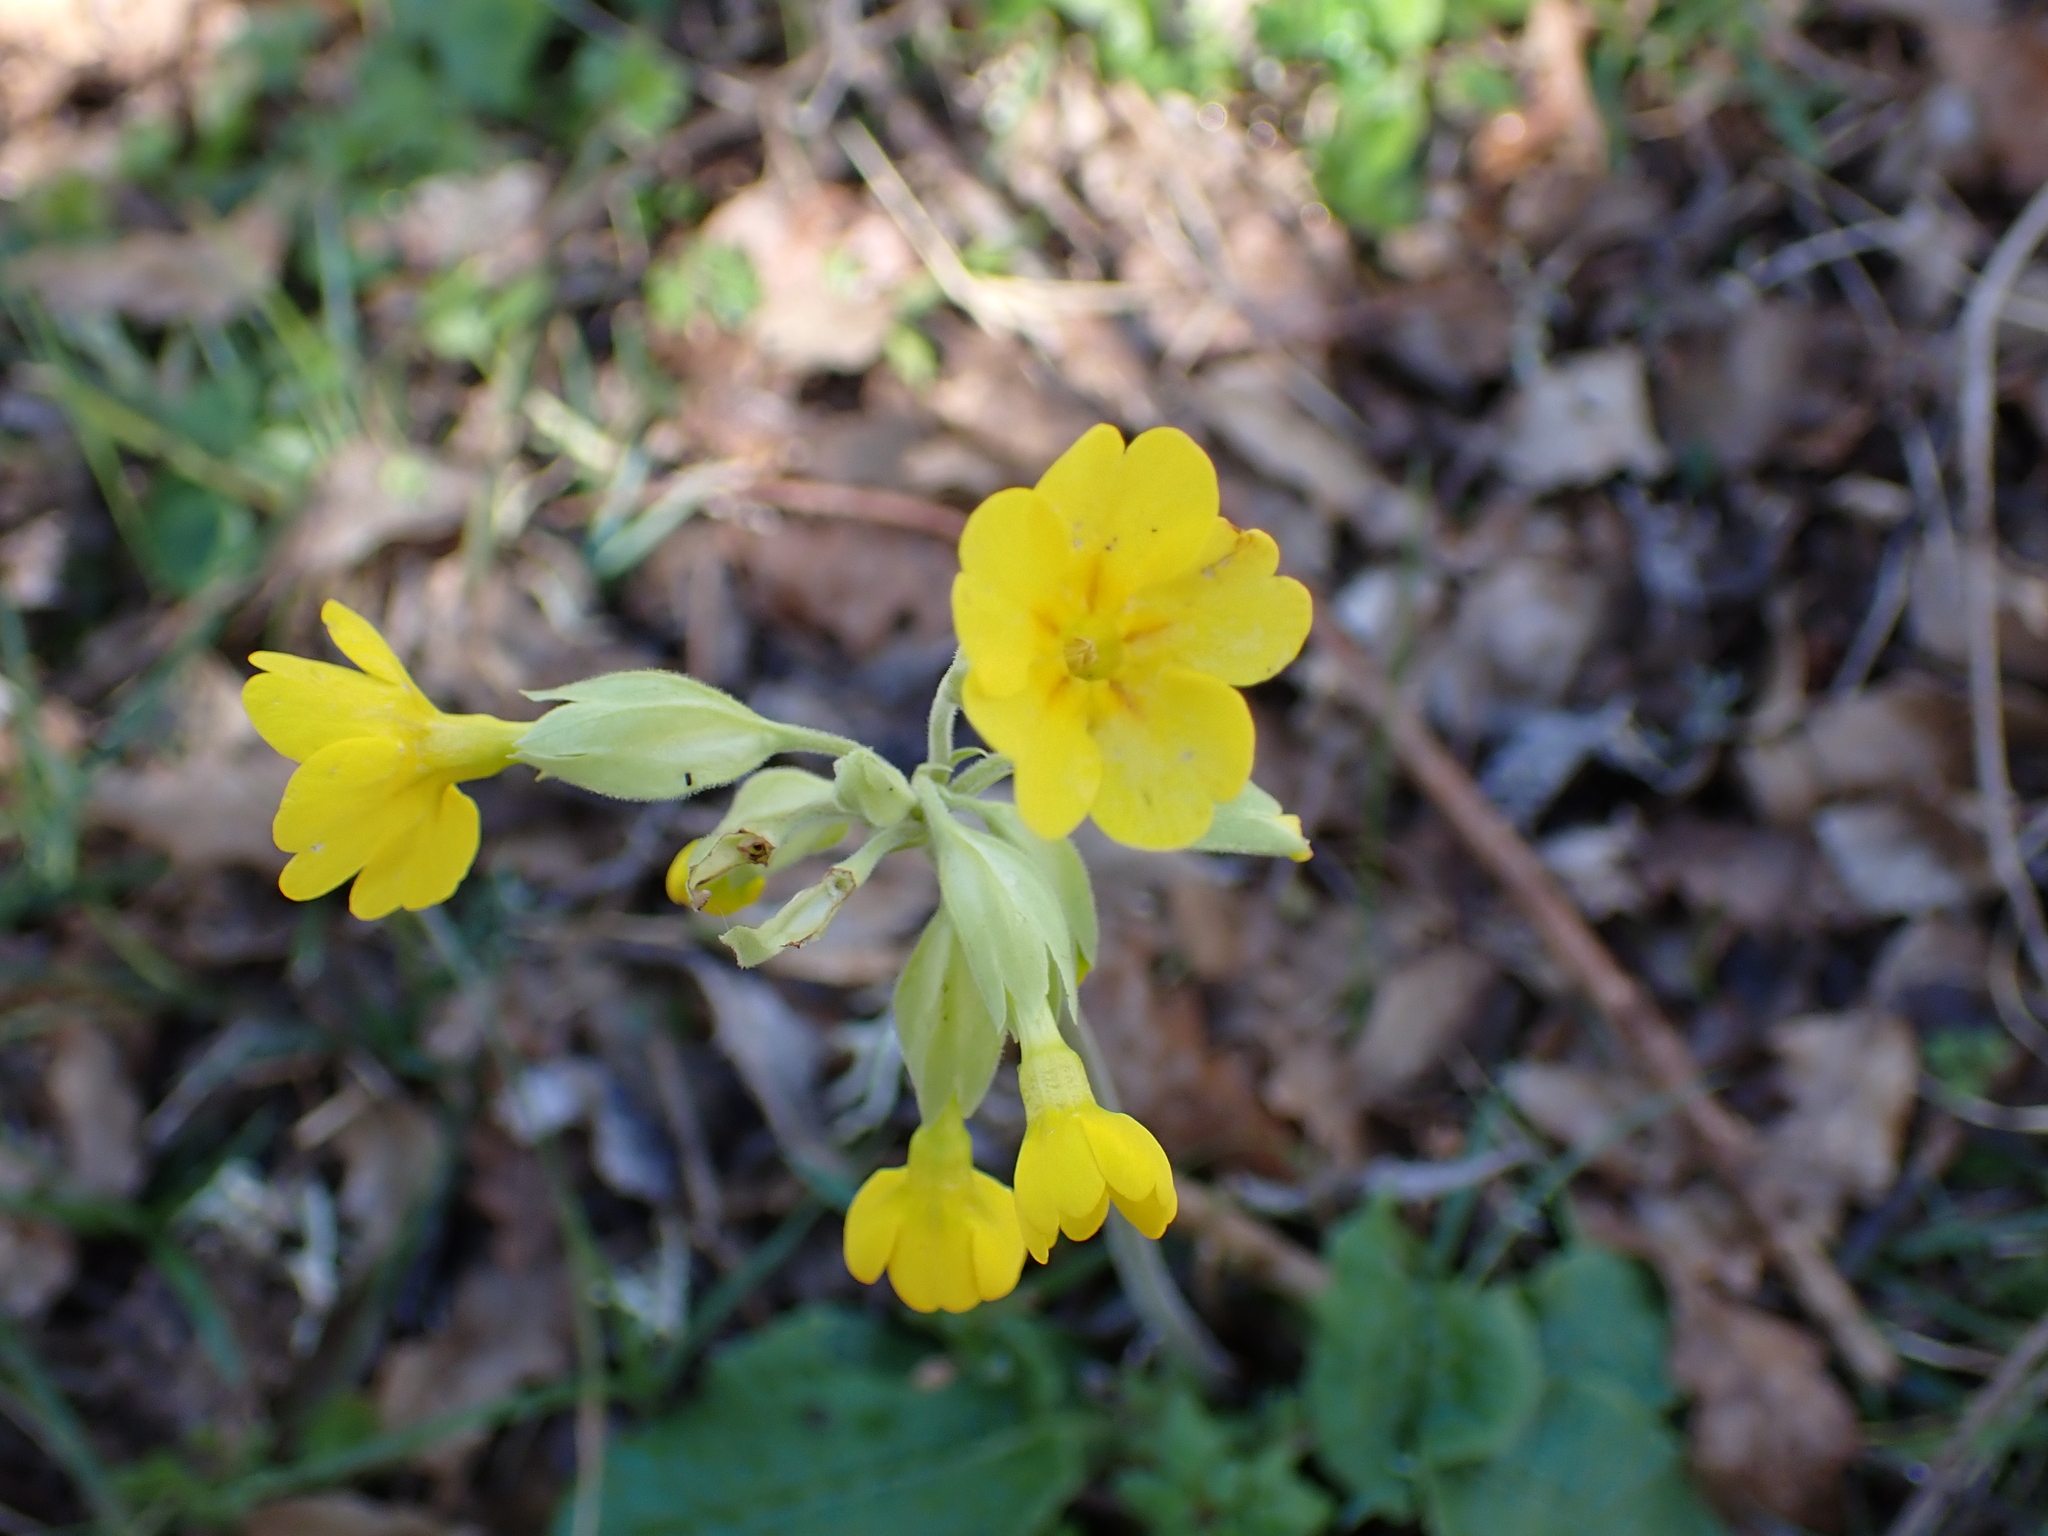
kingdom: Plantae
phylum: Tracheophyta
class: Magnoliopsida
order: Ericales
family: Primulaceae
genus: Primula
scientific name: Primula veris
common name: Cowslip
